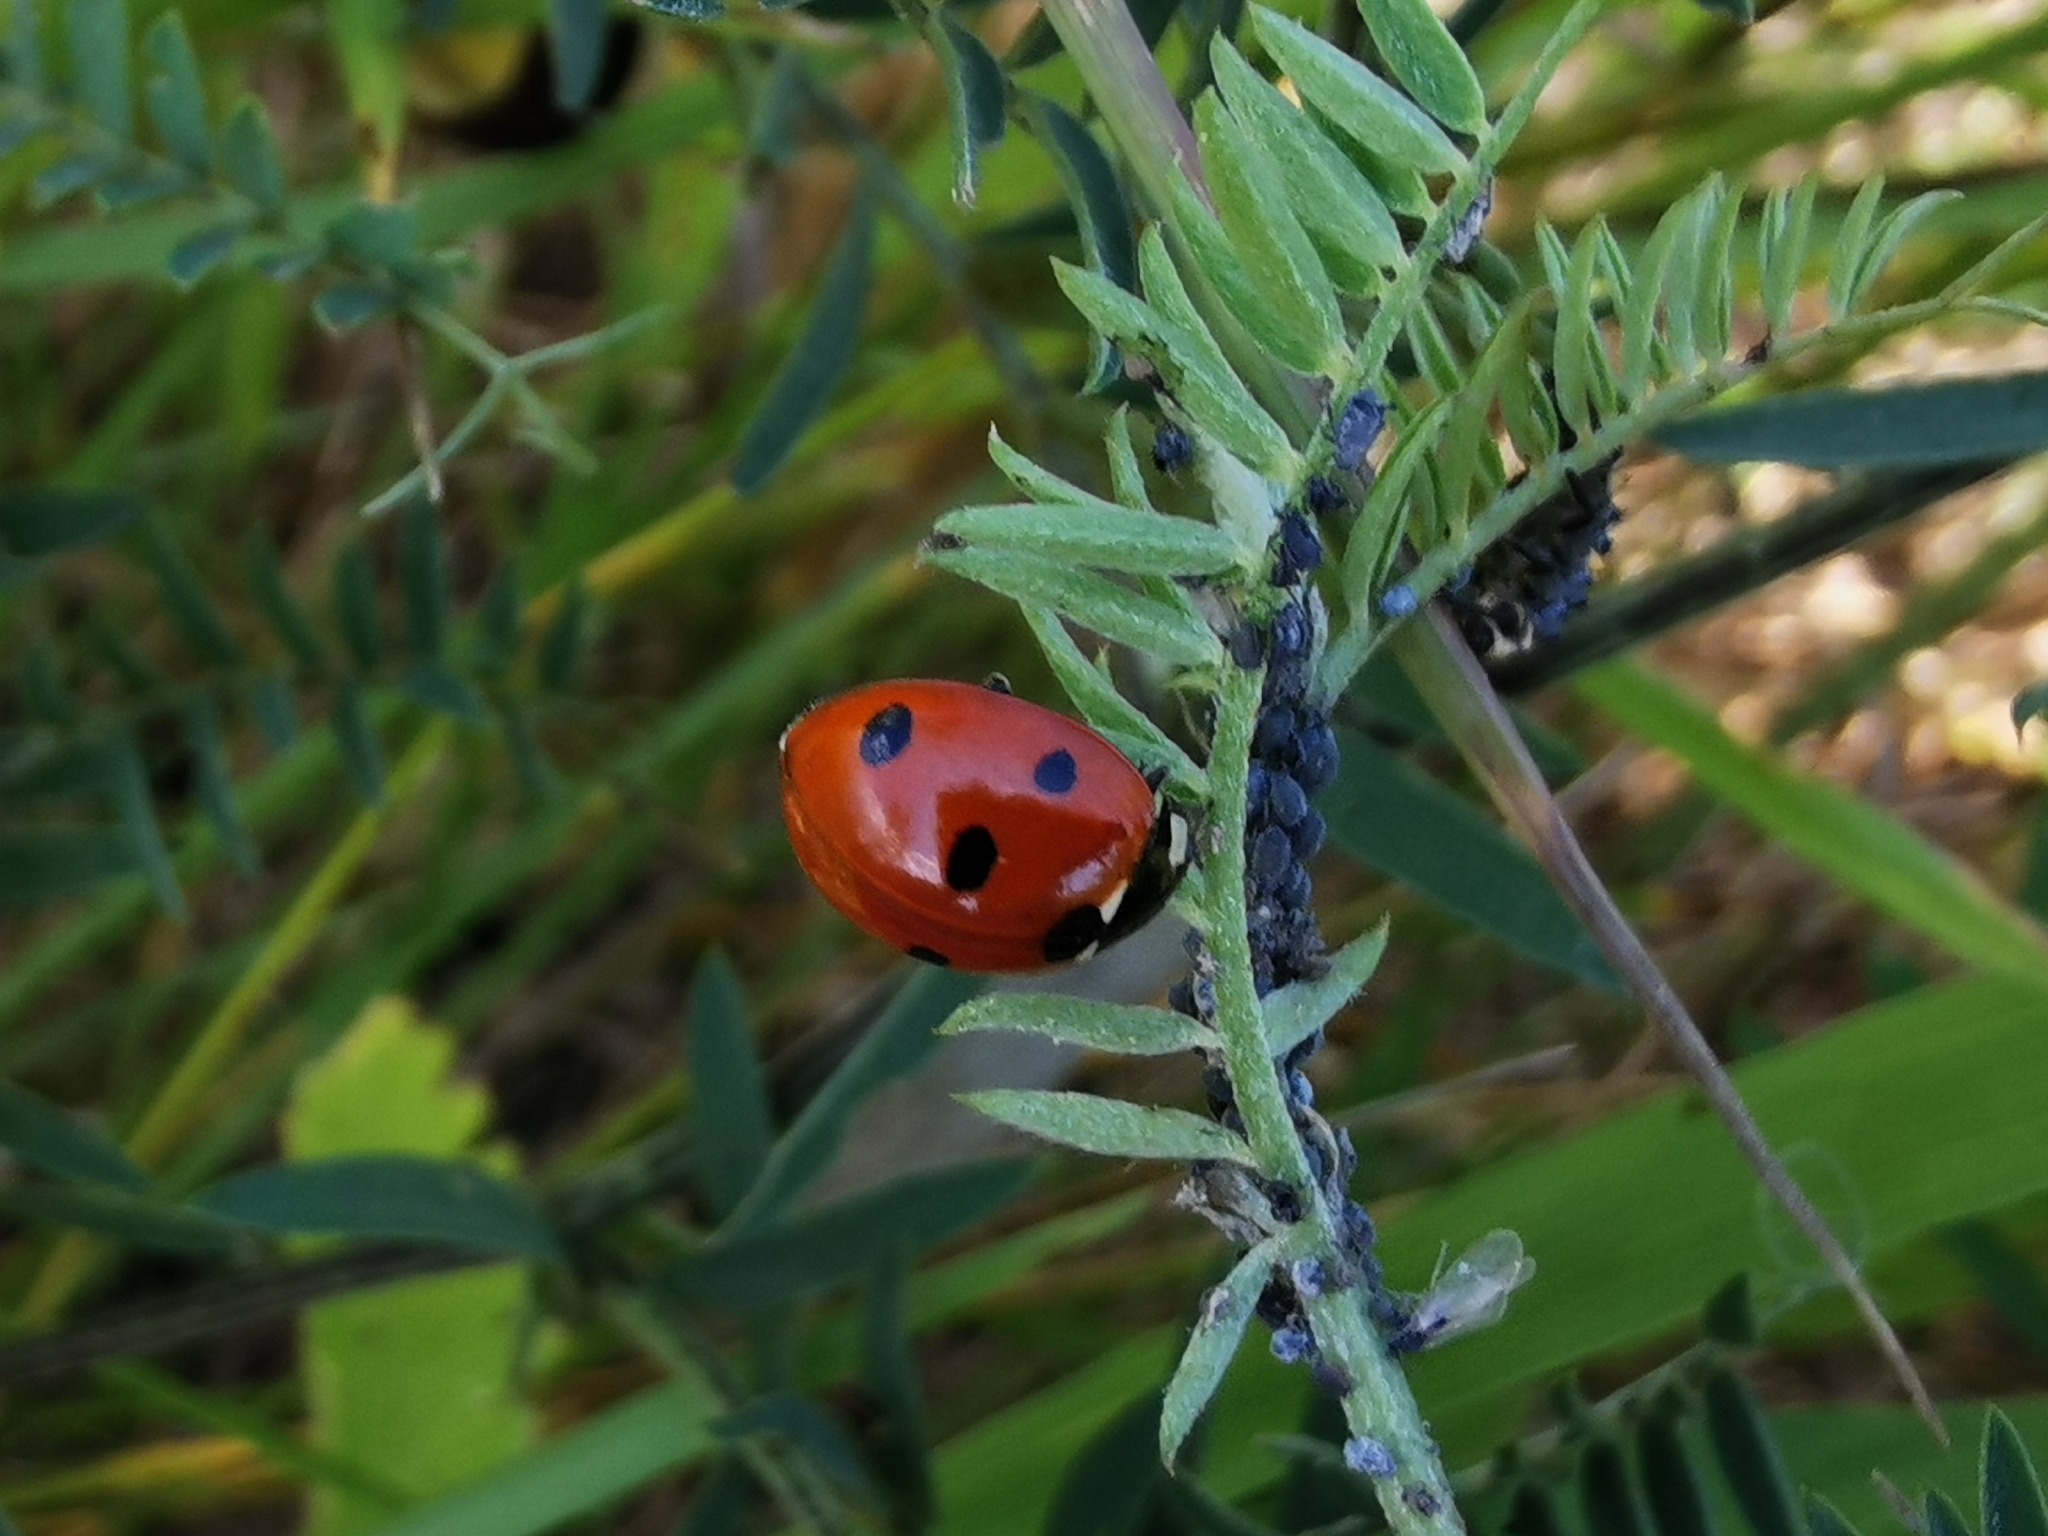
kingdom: Animalia
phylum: Arthropoda
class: Insecta
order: Coleoptera
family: Coccinellidae
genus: Coccinella
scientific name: Coccinella septempunctata
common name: Sevenspotted lady beetle
